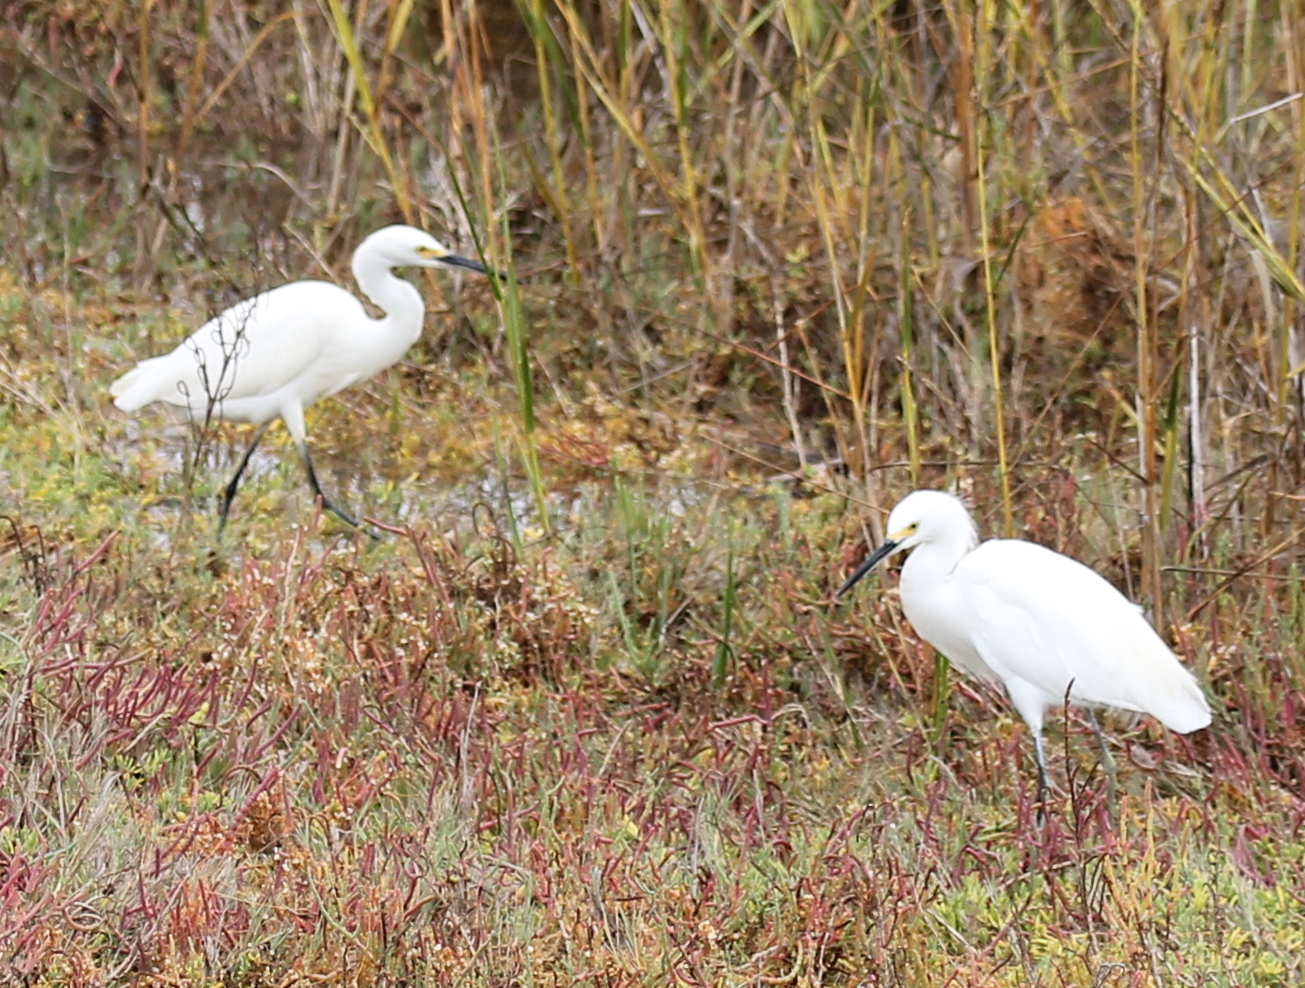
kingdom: Animalia
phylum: Chordata
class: Aves
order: Pelecaniformes
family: Ardeidae
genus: Egretta
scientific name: Egretta thula
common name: Snowy egret
